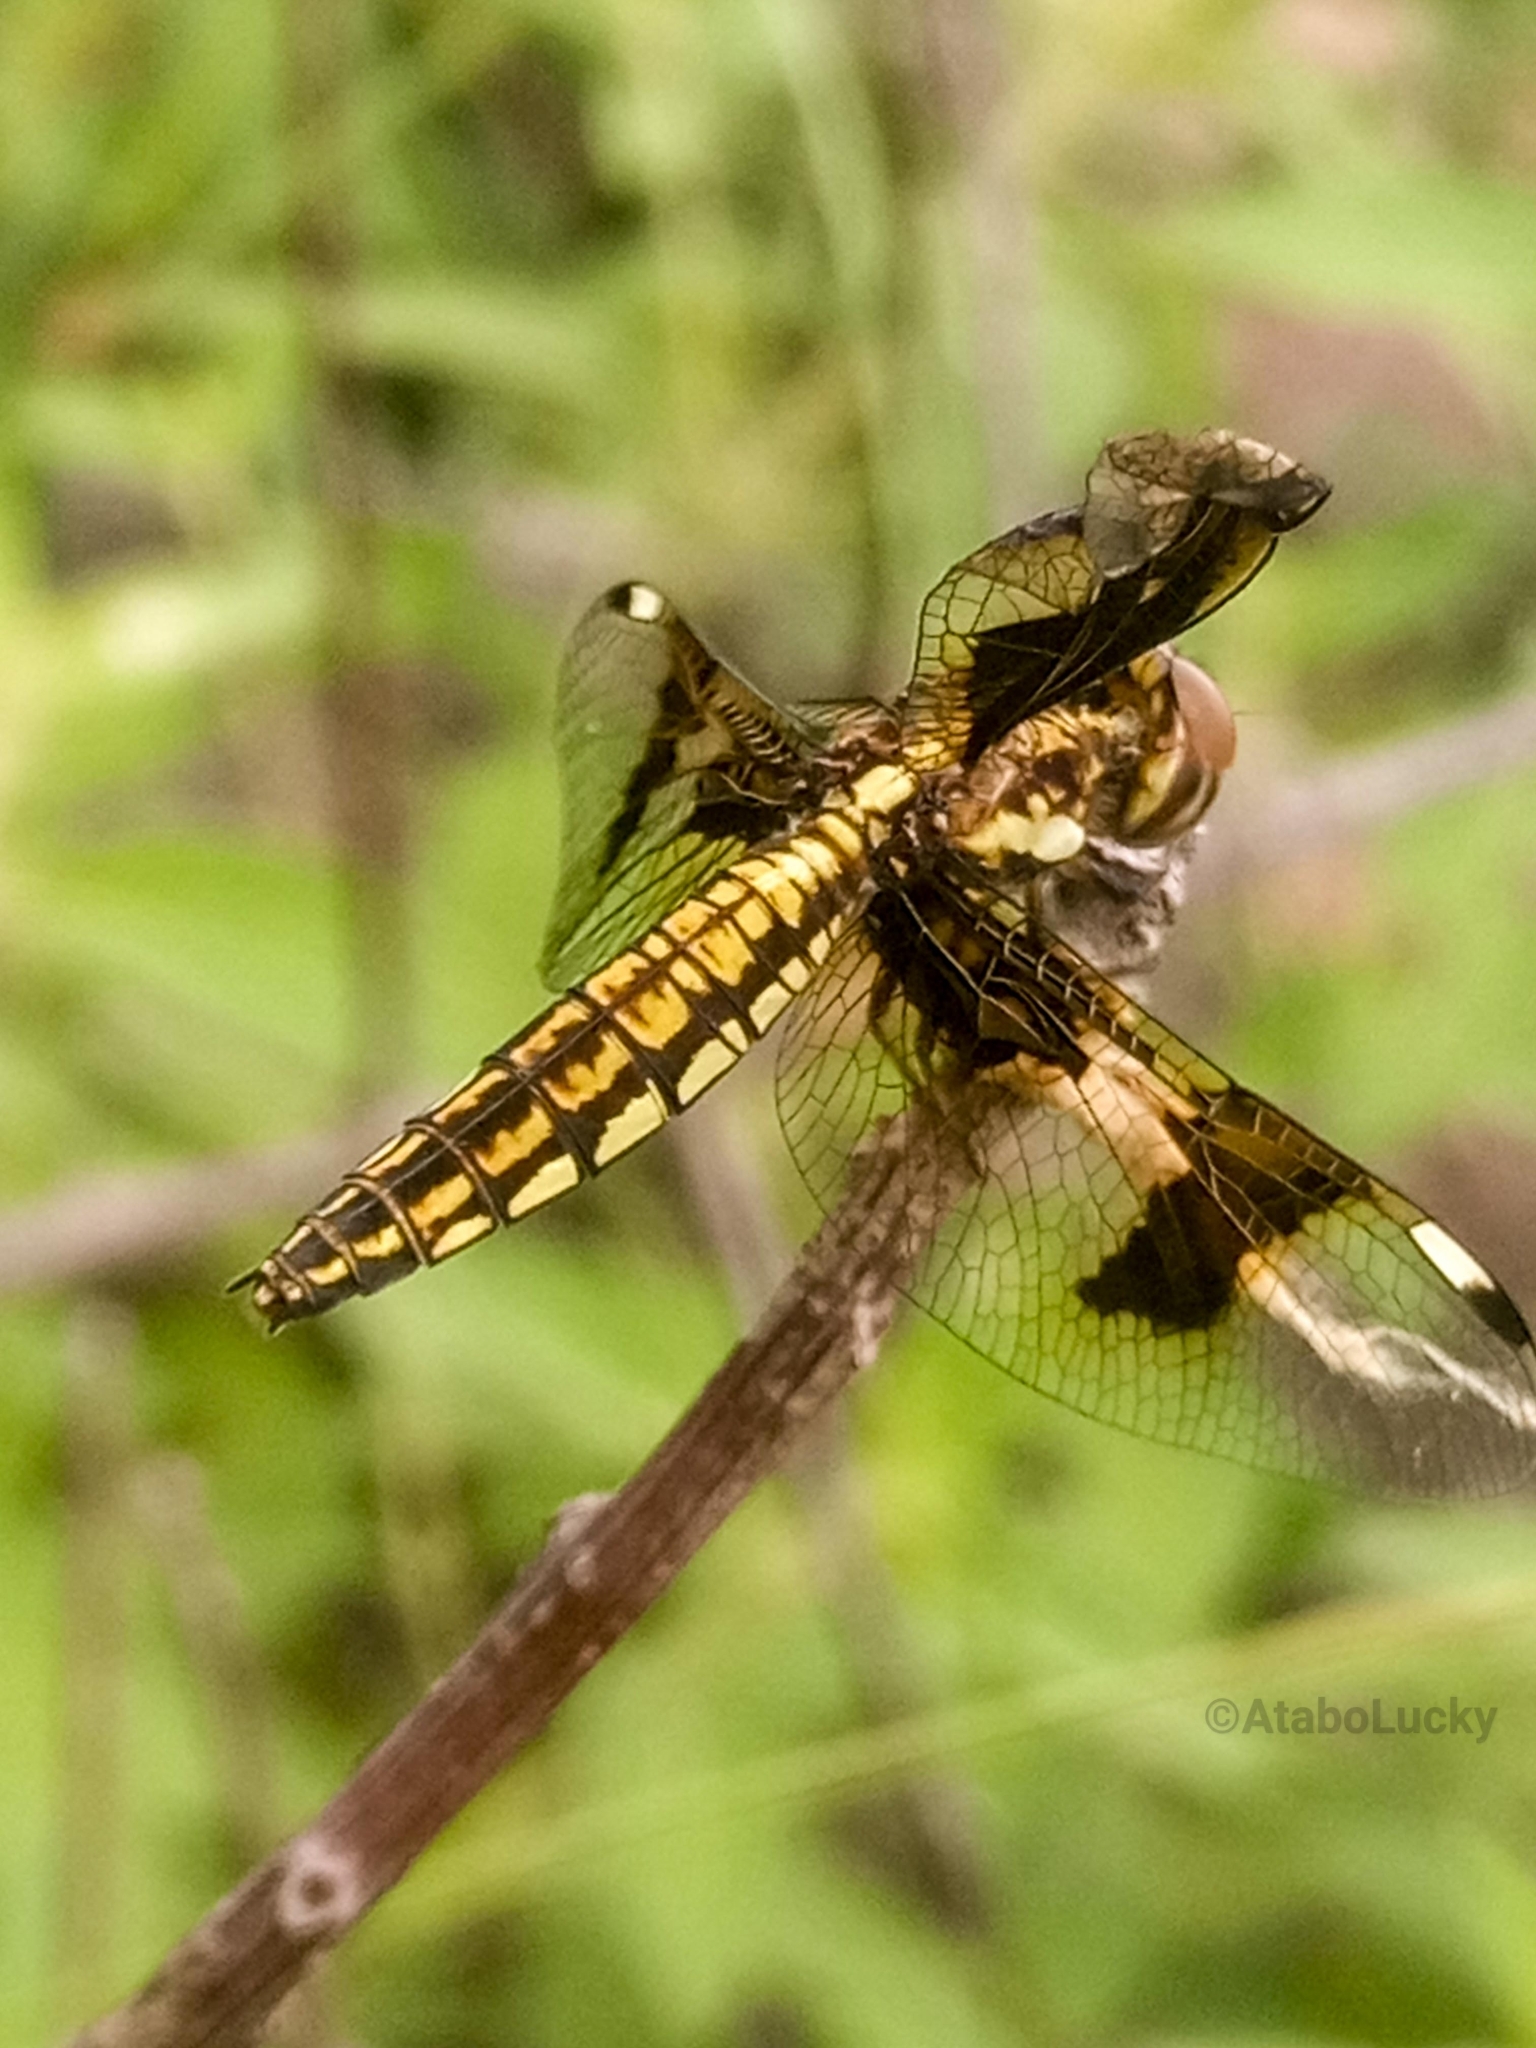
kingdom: Animalia
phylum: Arthropoda
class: Insecta
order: Odonata
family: Libellulidae
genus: Palpopleura
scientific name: Palpopleura lucia
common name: Lucia widow
